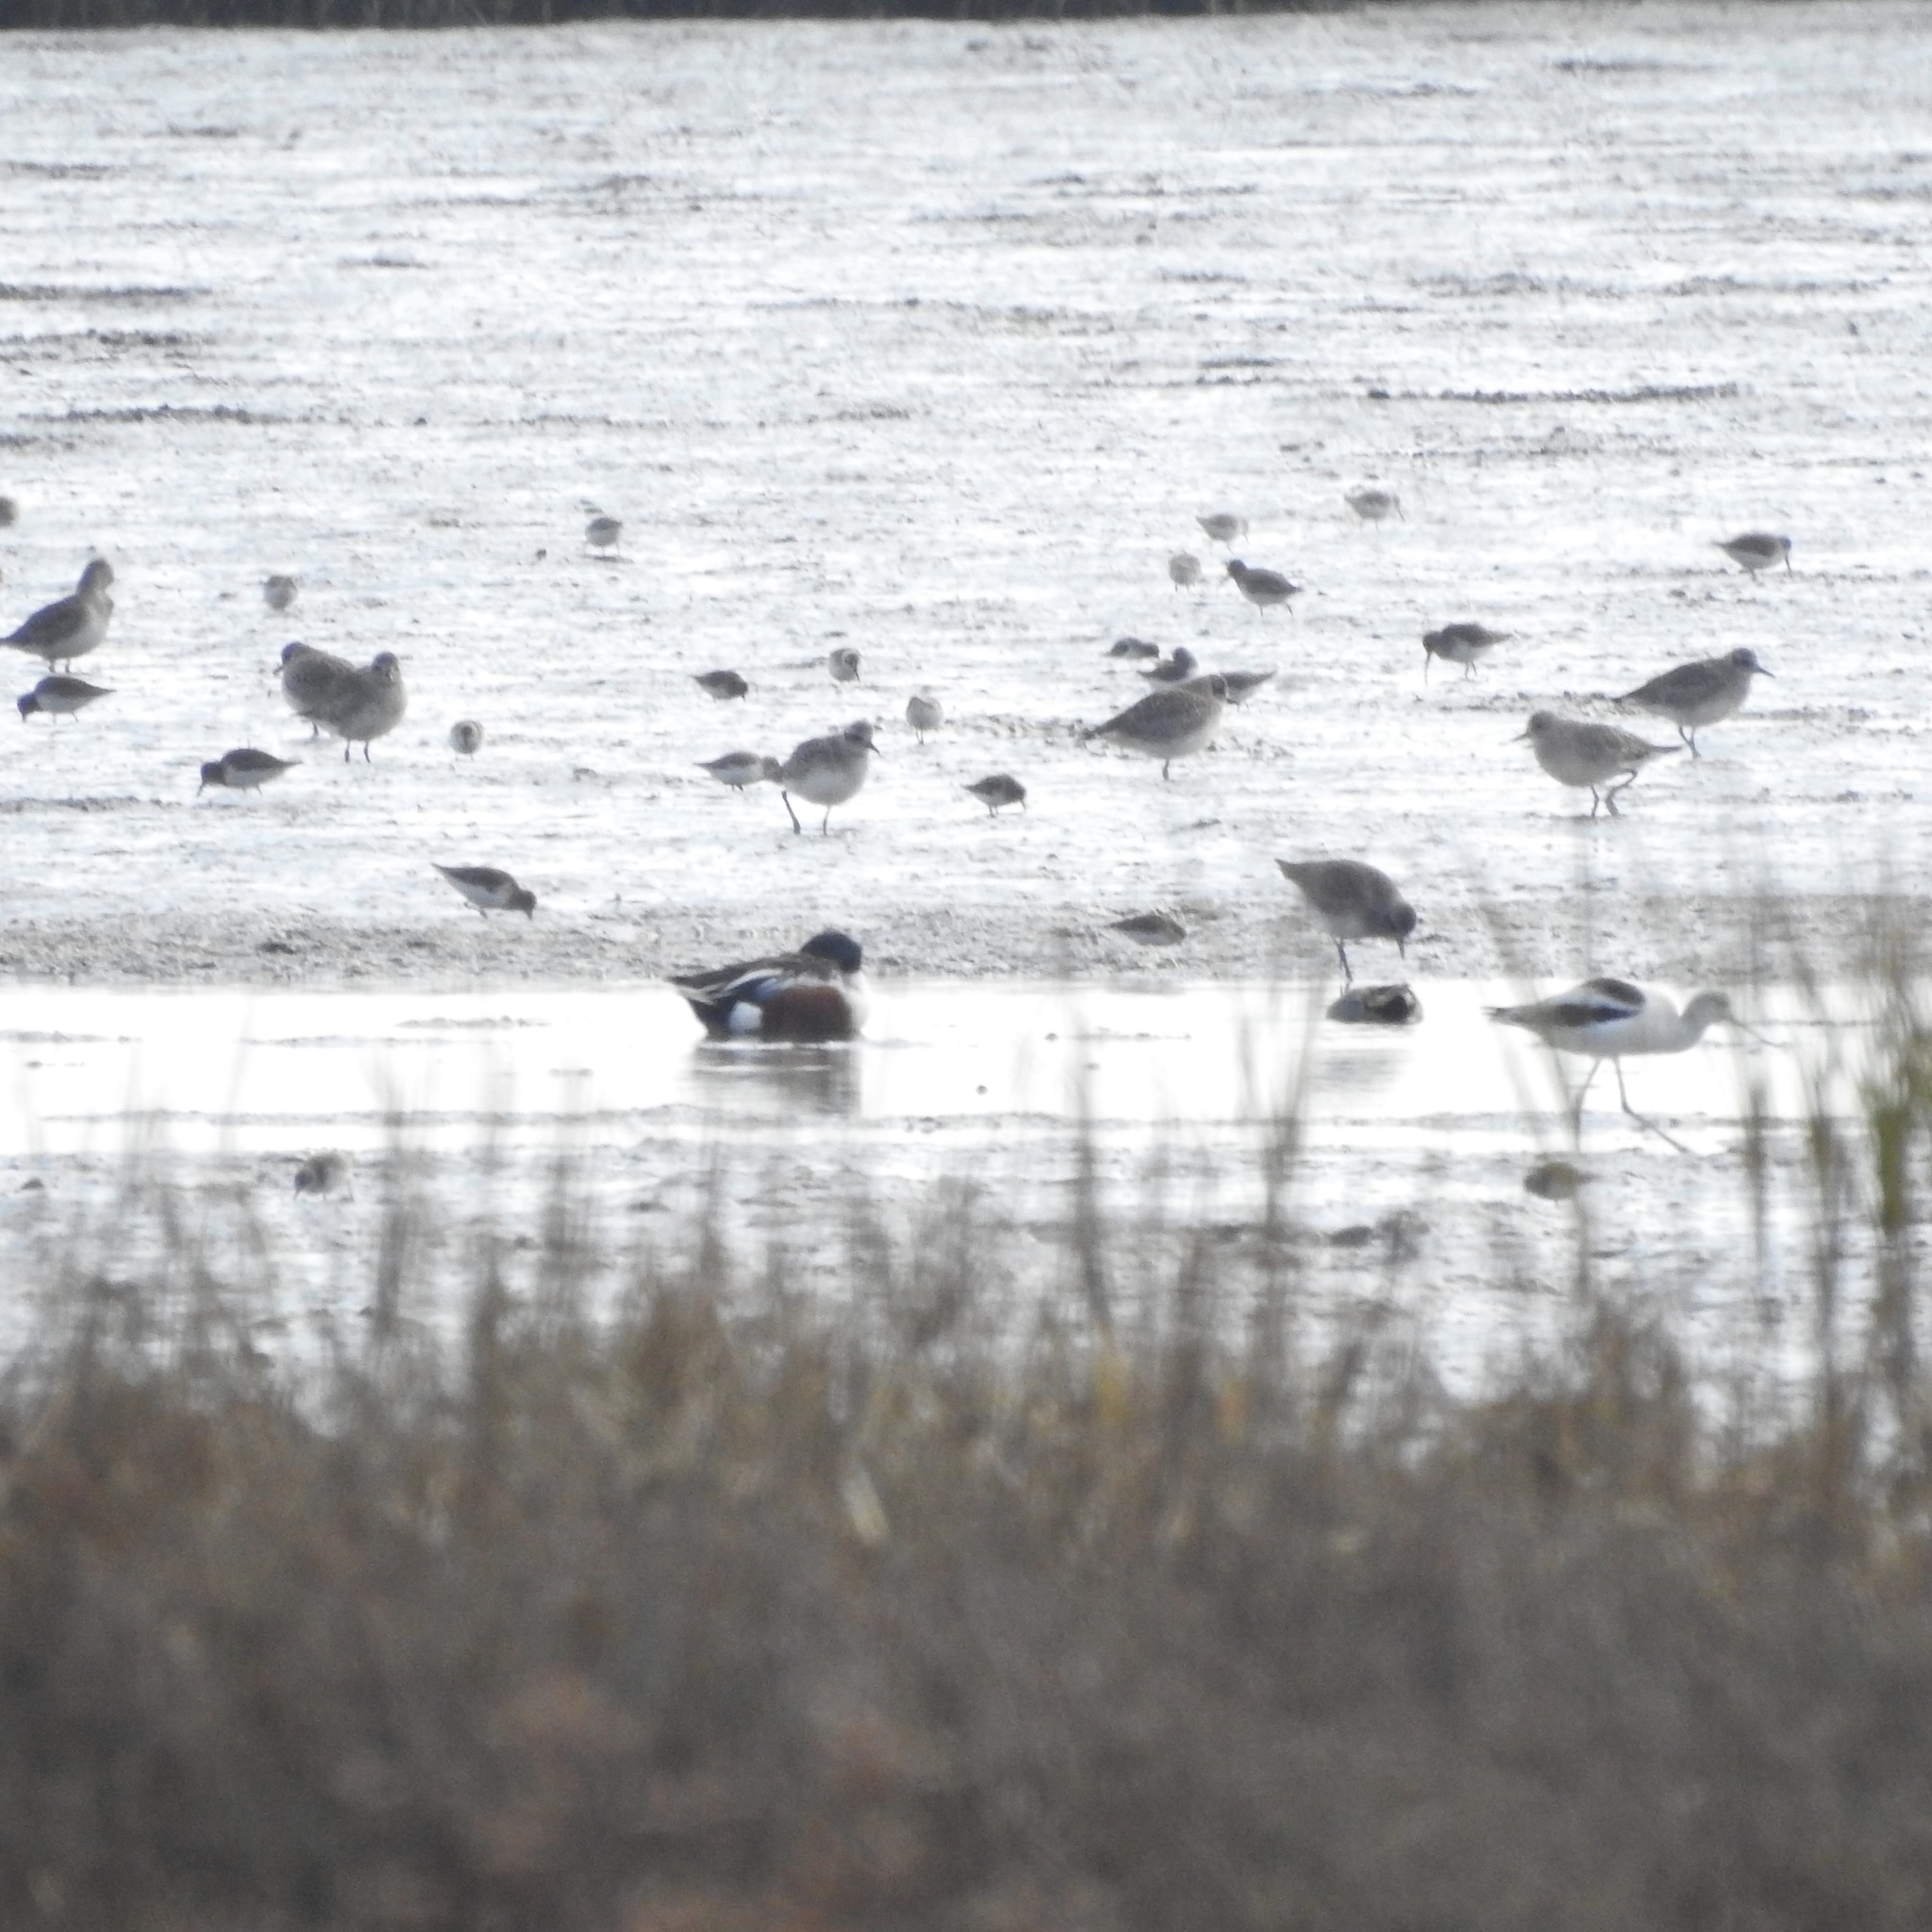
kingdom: Animalia
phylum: Chordata
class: Aves
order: Anseriformes
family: Anatidae
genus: Spatula
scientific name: Spatula clypeata
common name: Northern shoveler
